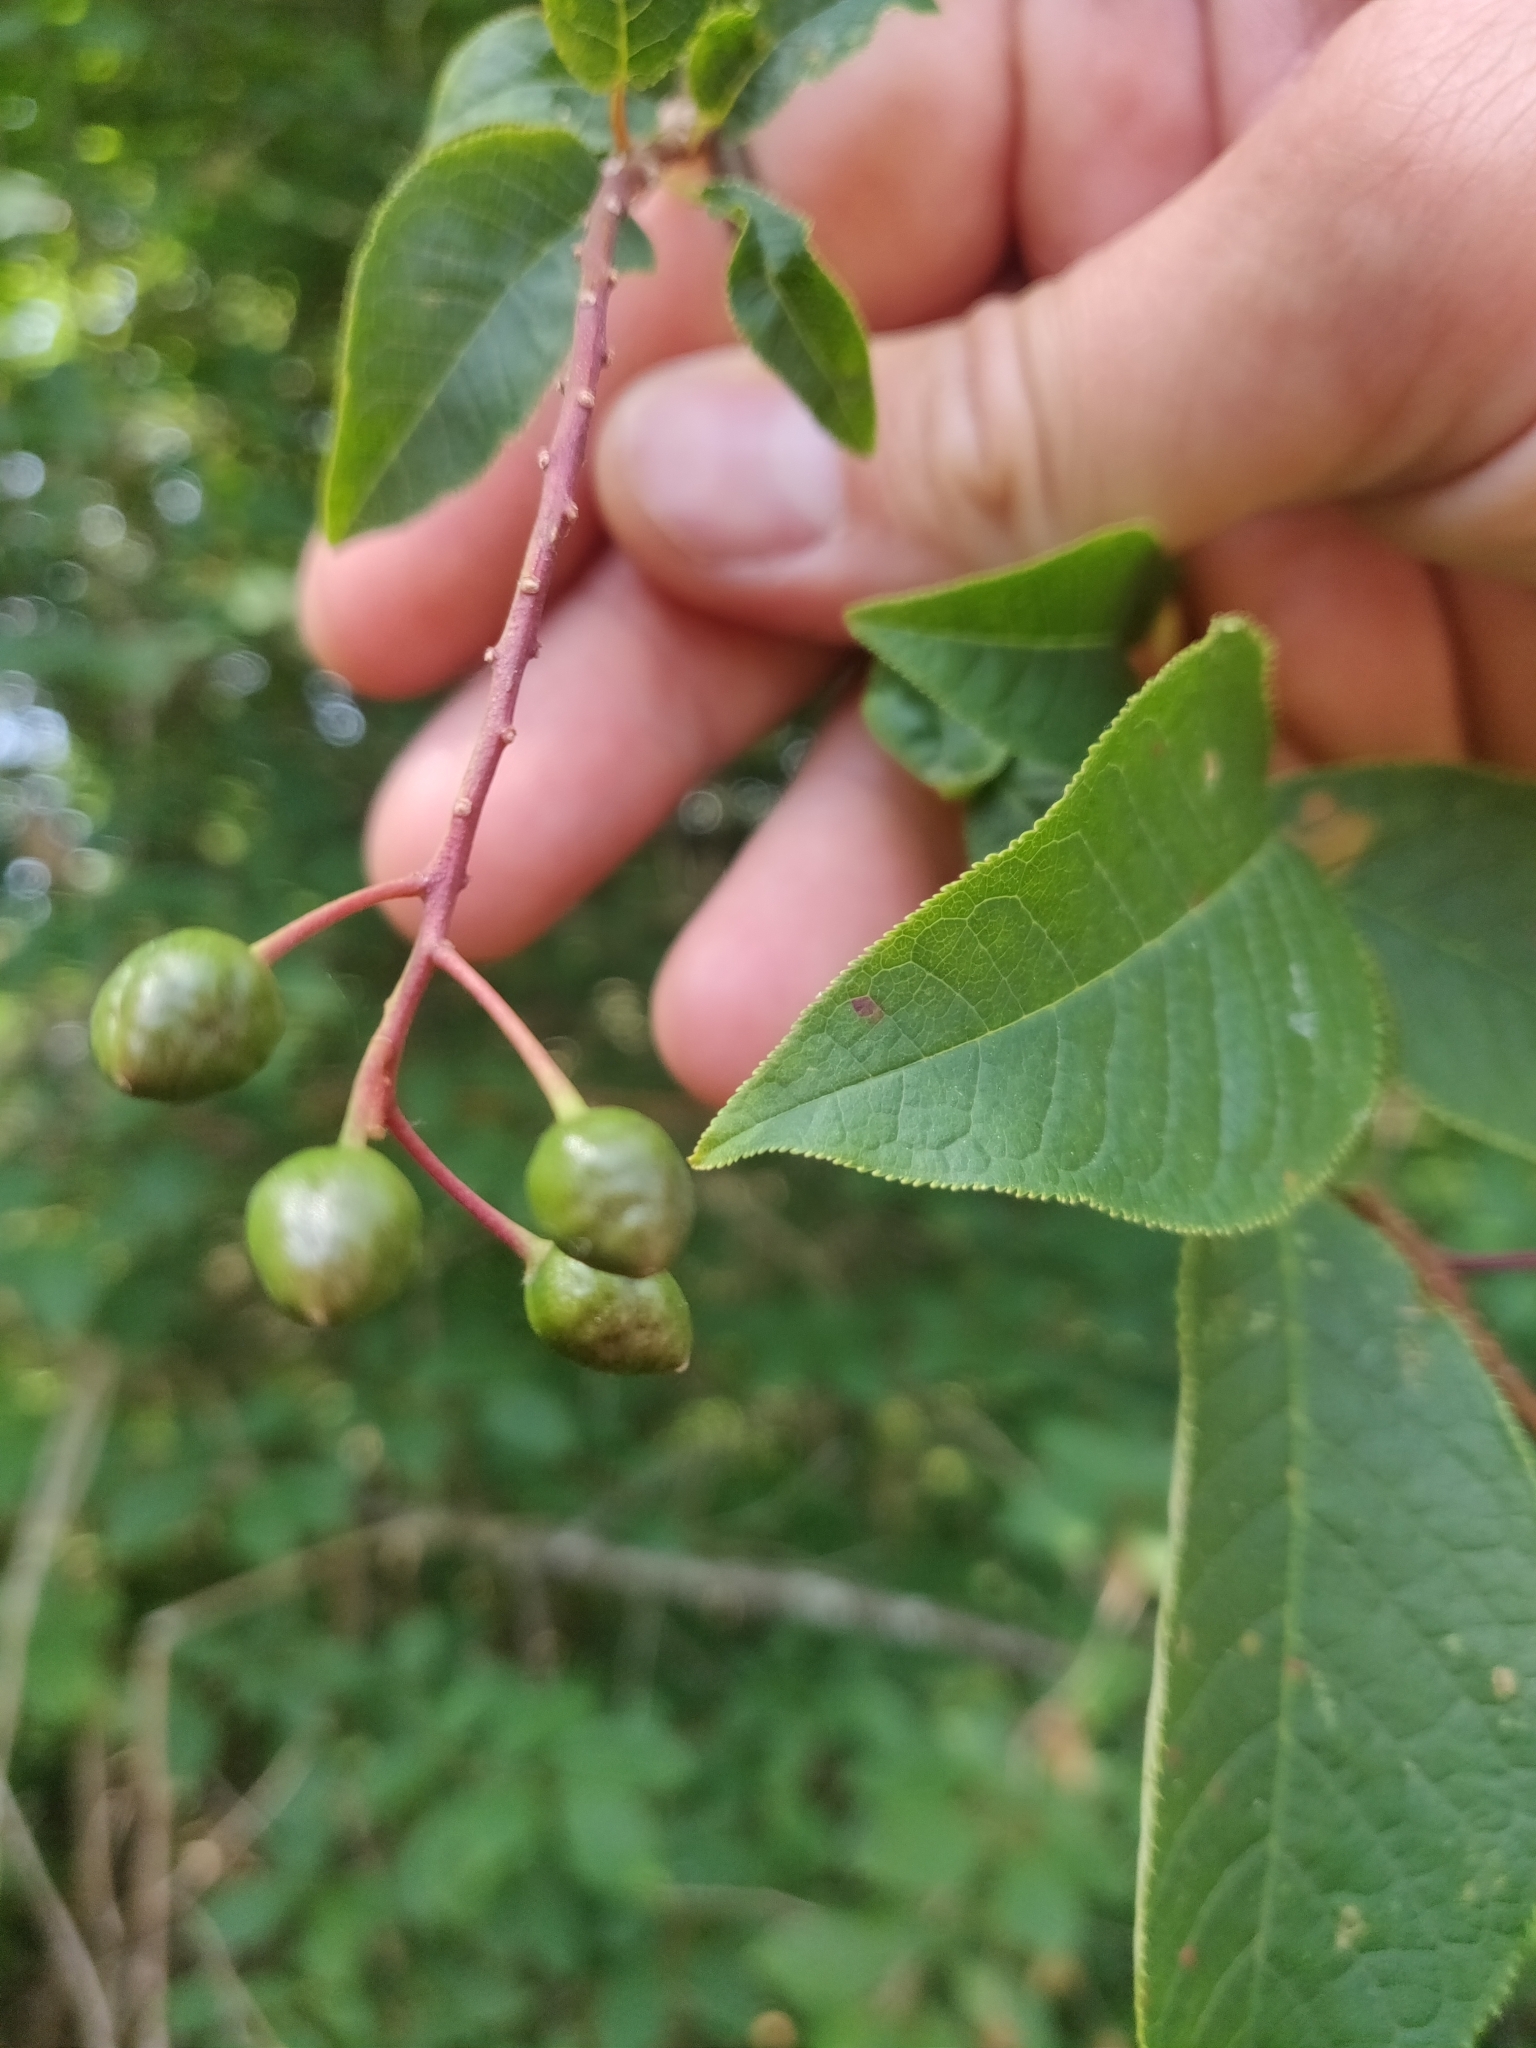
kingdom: Plantae
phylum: Tracheophyta
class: Magnoliopsida
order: Rosales
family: Rosaceae
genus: Prunus
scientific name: Prunus padus
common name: Bird cherry
